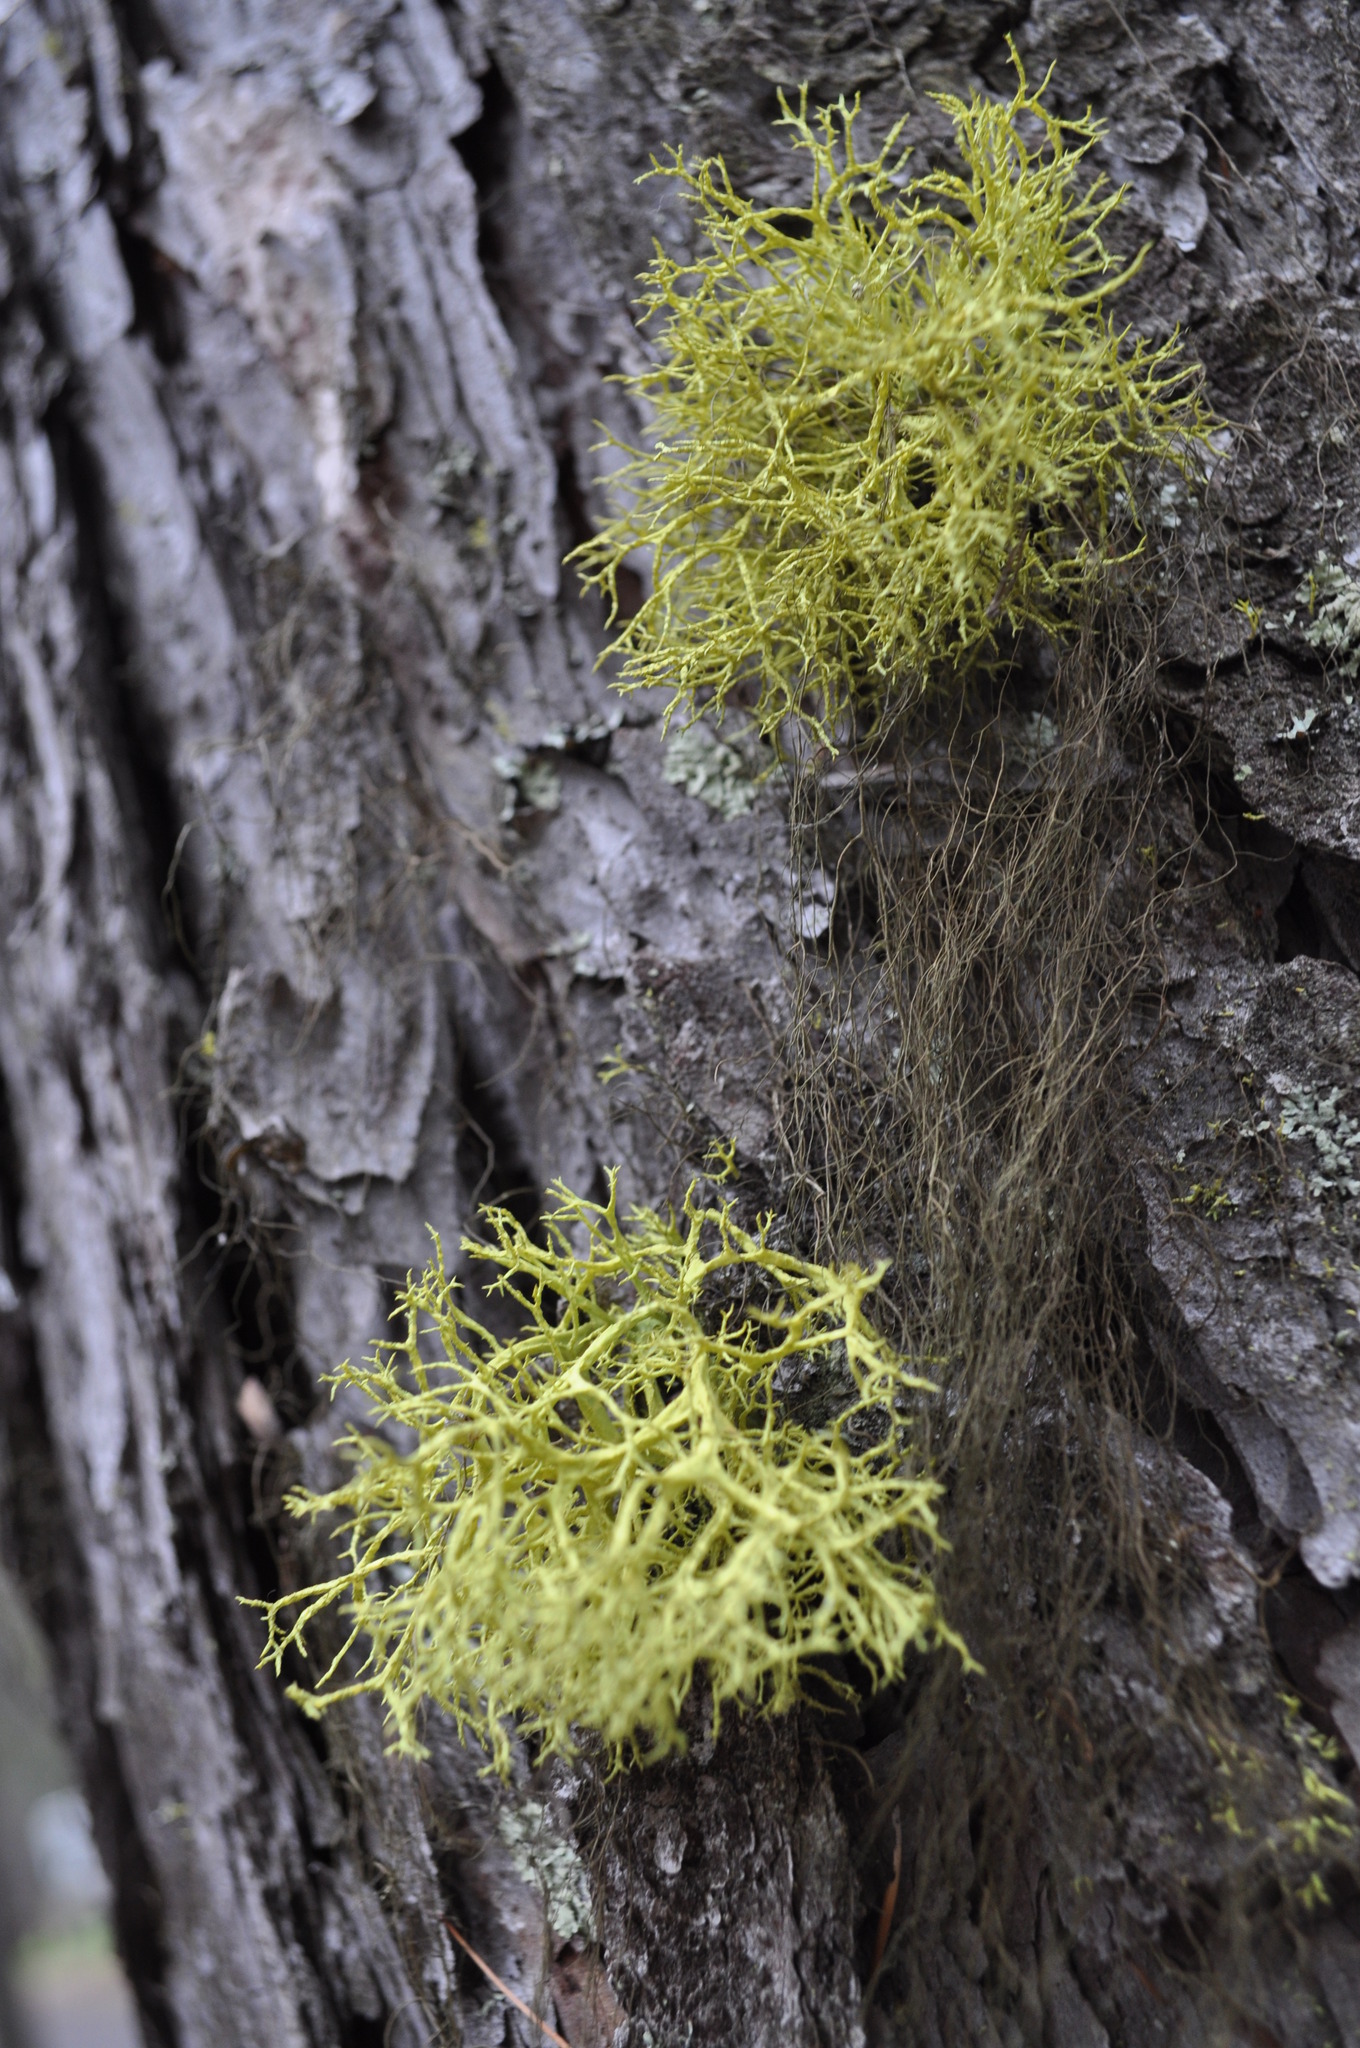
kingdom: Fungi
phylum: Ascomycota
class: Lecanoromycetes
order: Lecanorales
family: Parmeliaceae
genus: Letharia
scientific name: Letharia vulpina
